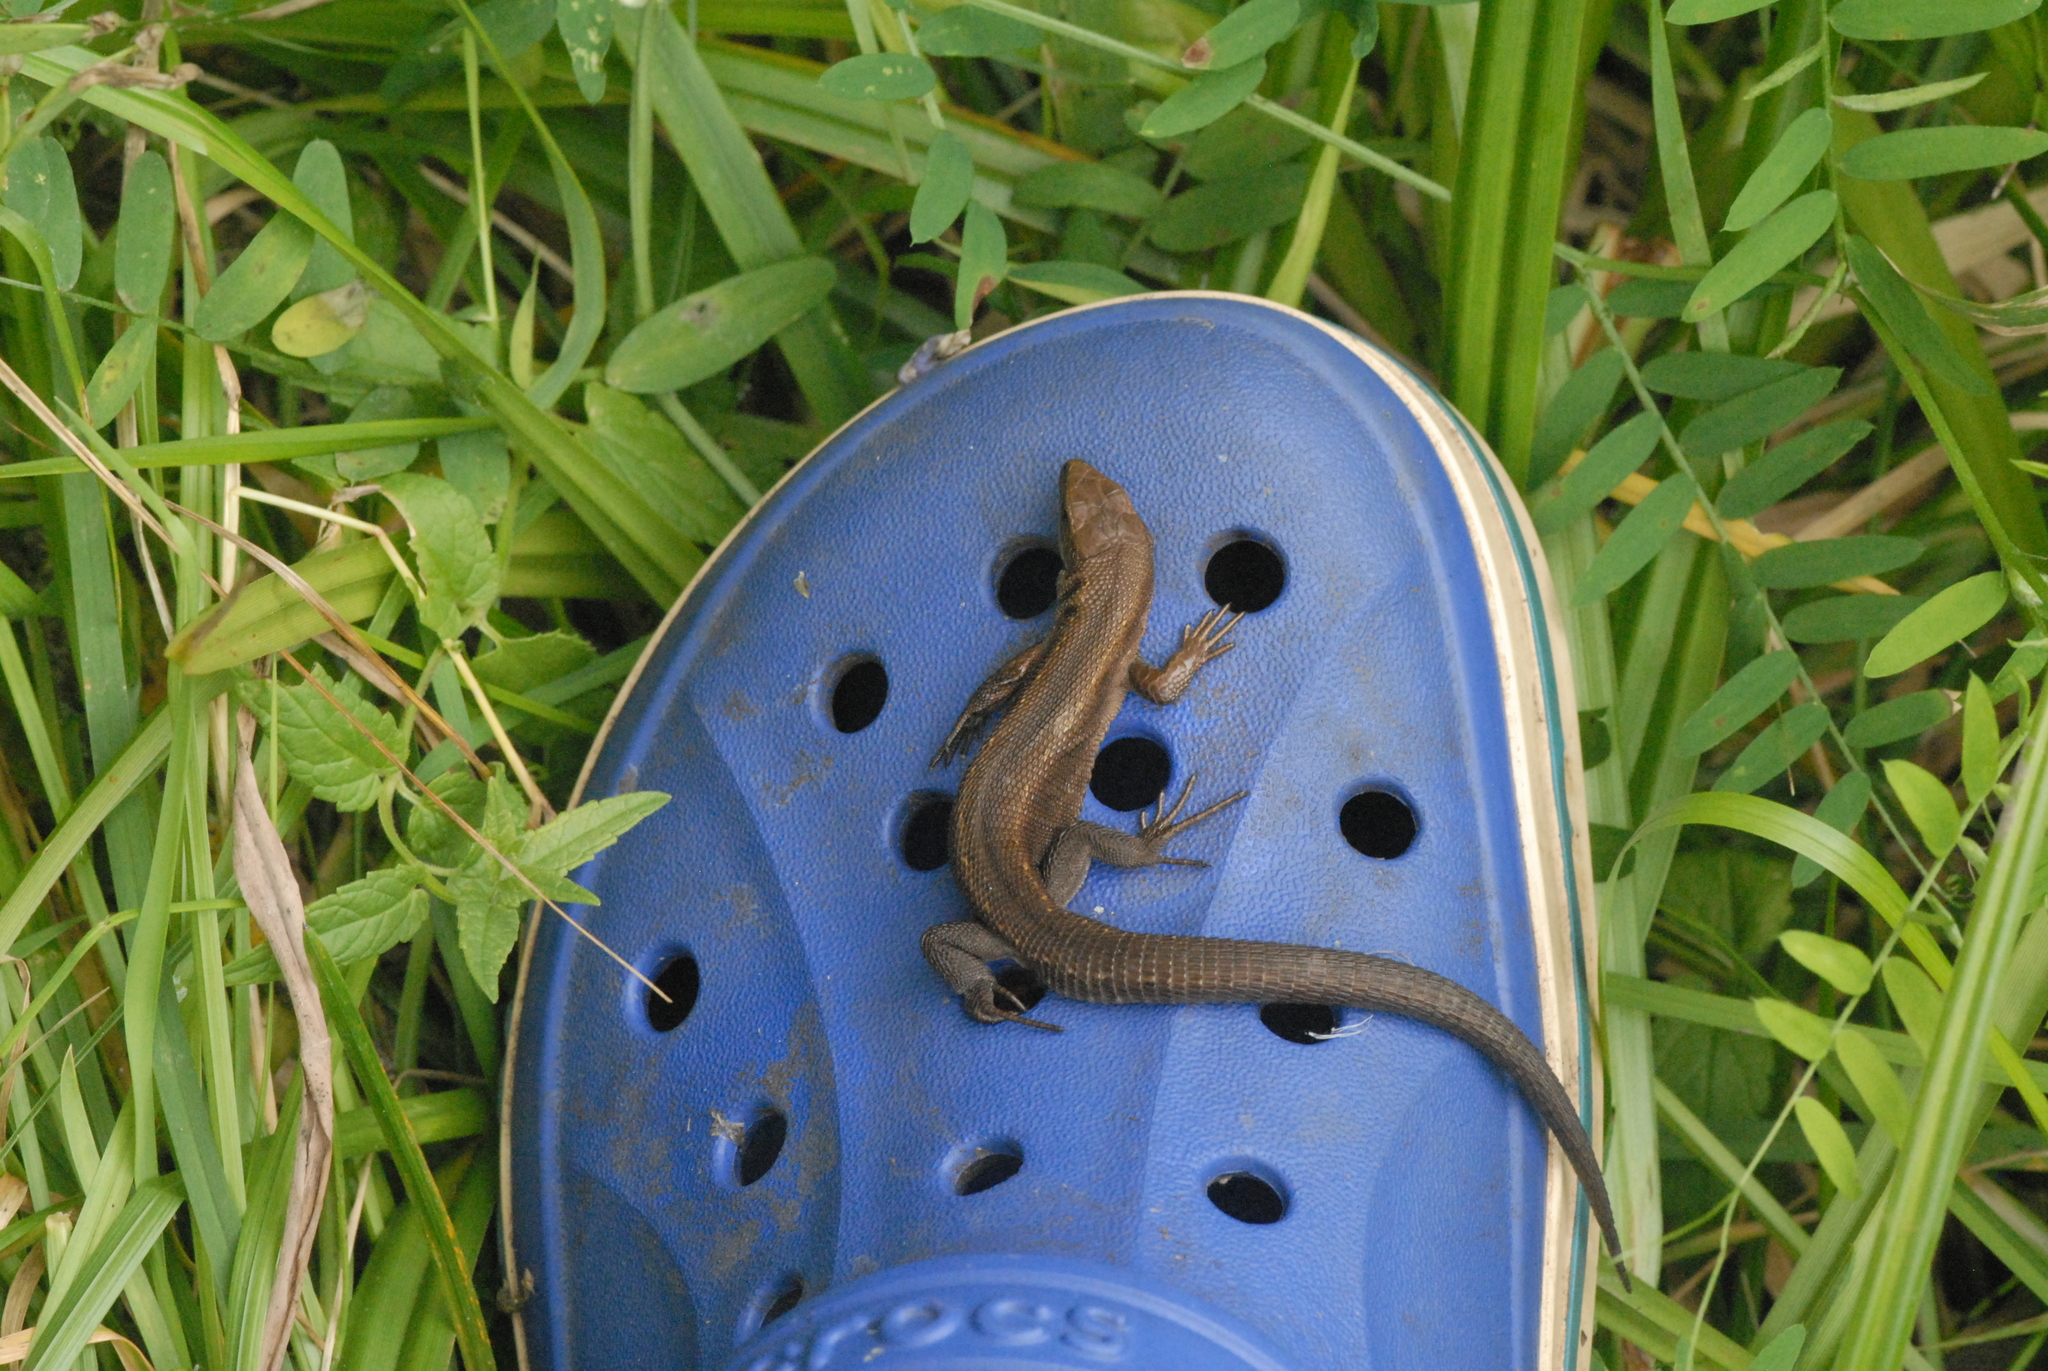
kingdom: Animalia
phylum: Chordata
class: Squamata
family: Lacertidae
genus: Zootoca
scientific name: Zootoca vivipara
